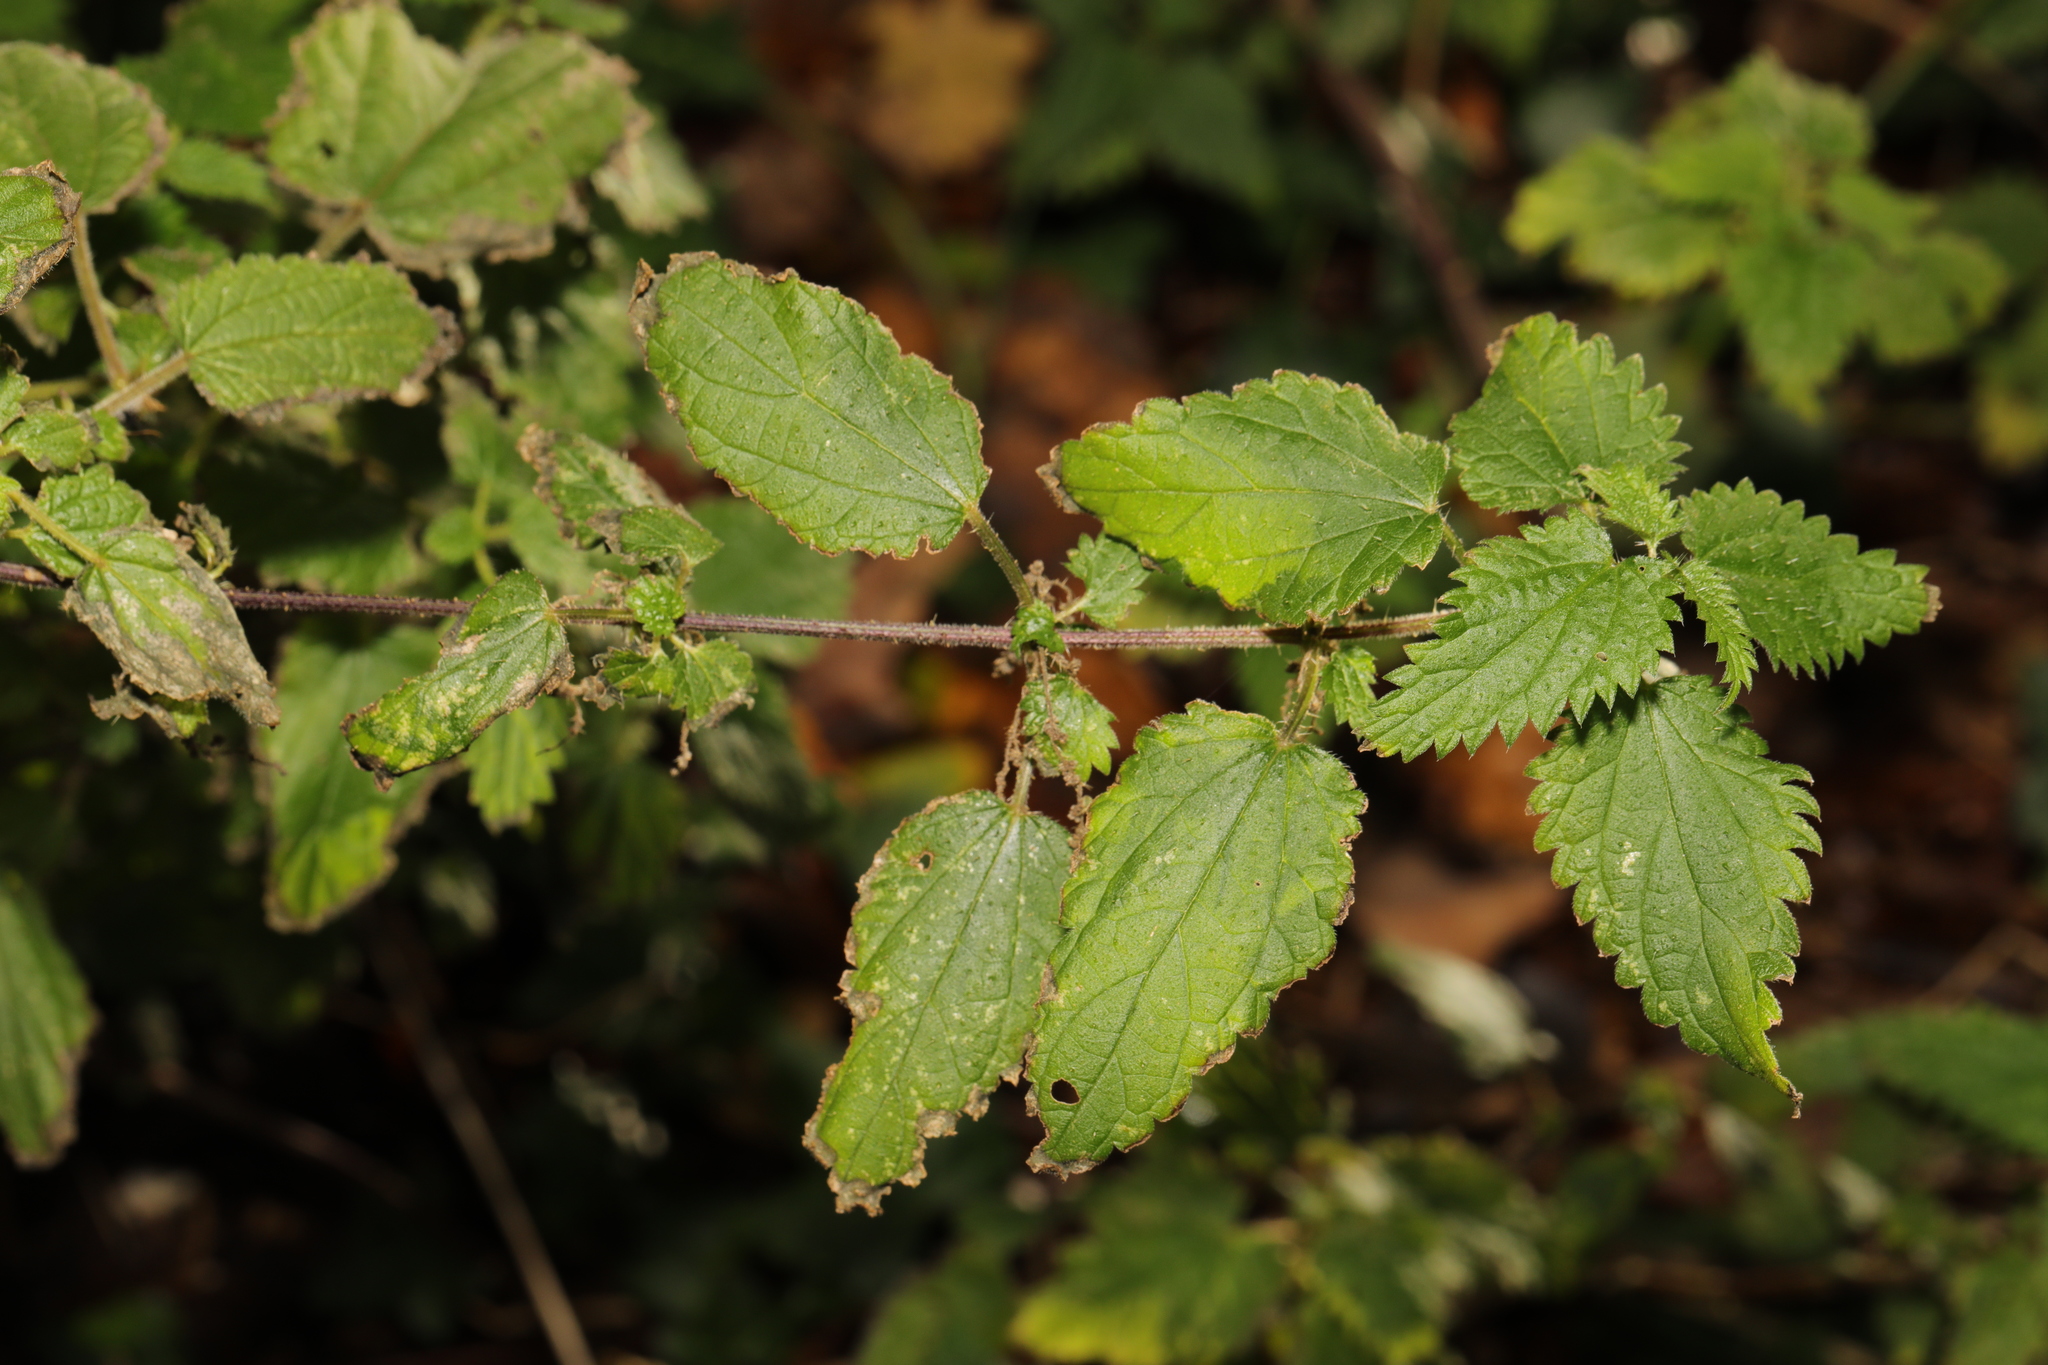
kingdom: Plantae
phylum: Tracheophyta
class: Magnoliopsida
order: Rosales
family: Urticaceae
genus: Urtica
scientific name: Urtica dioica
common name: Common nettle
